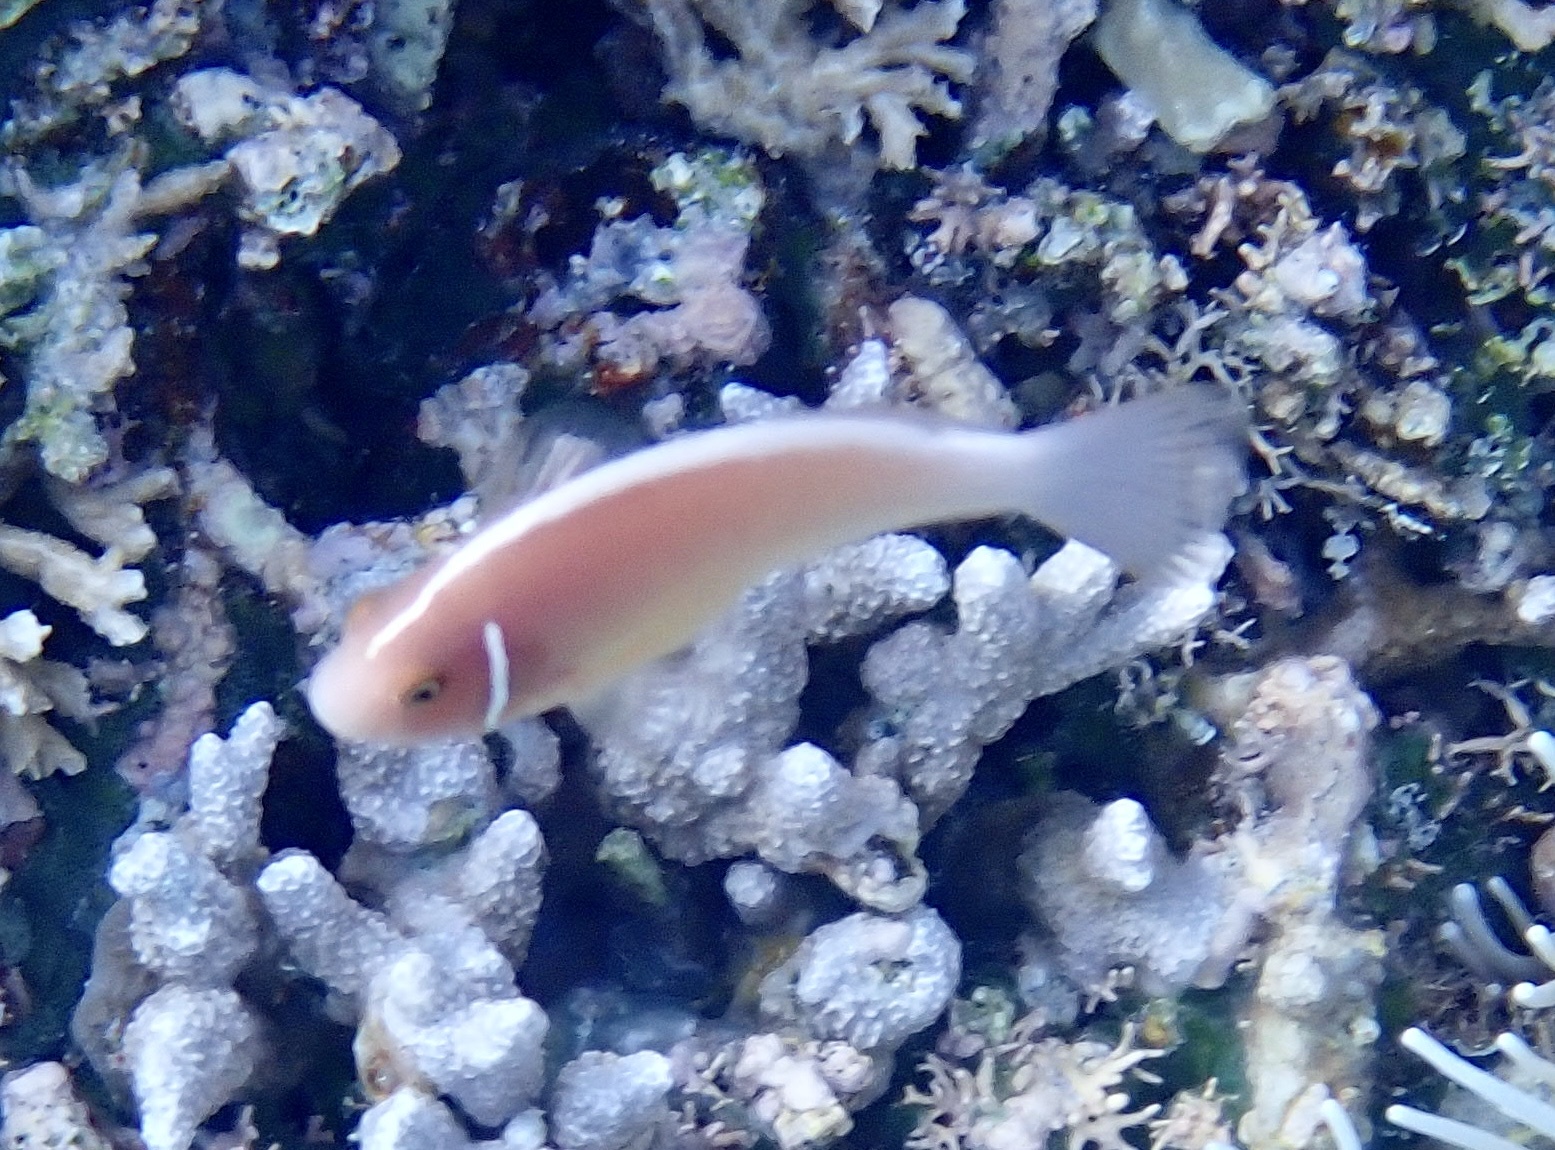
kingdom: Animalia
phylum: Chordata
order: Perciformes
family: Pomacentridae
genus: Amphiprion
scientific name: Amphiprion perideraion
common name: Pink anemonefish
